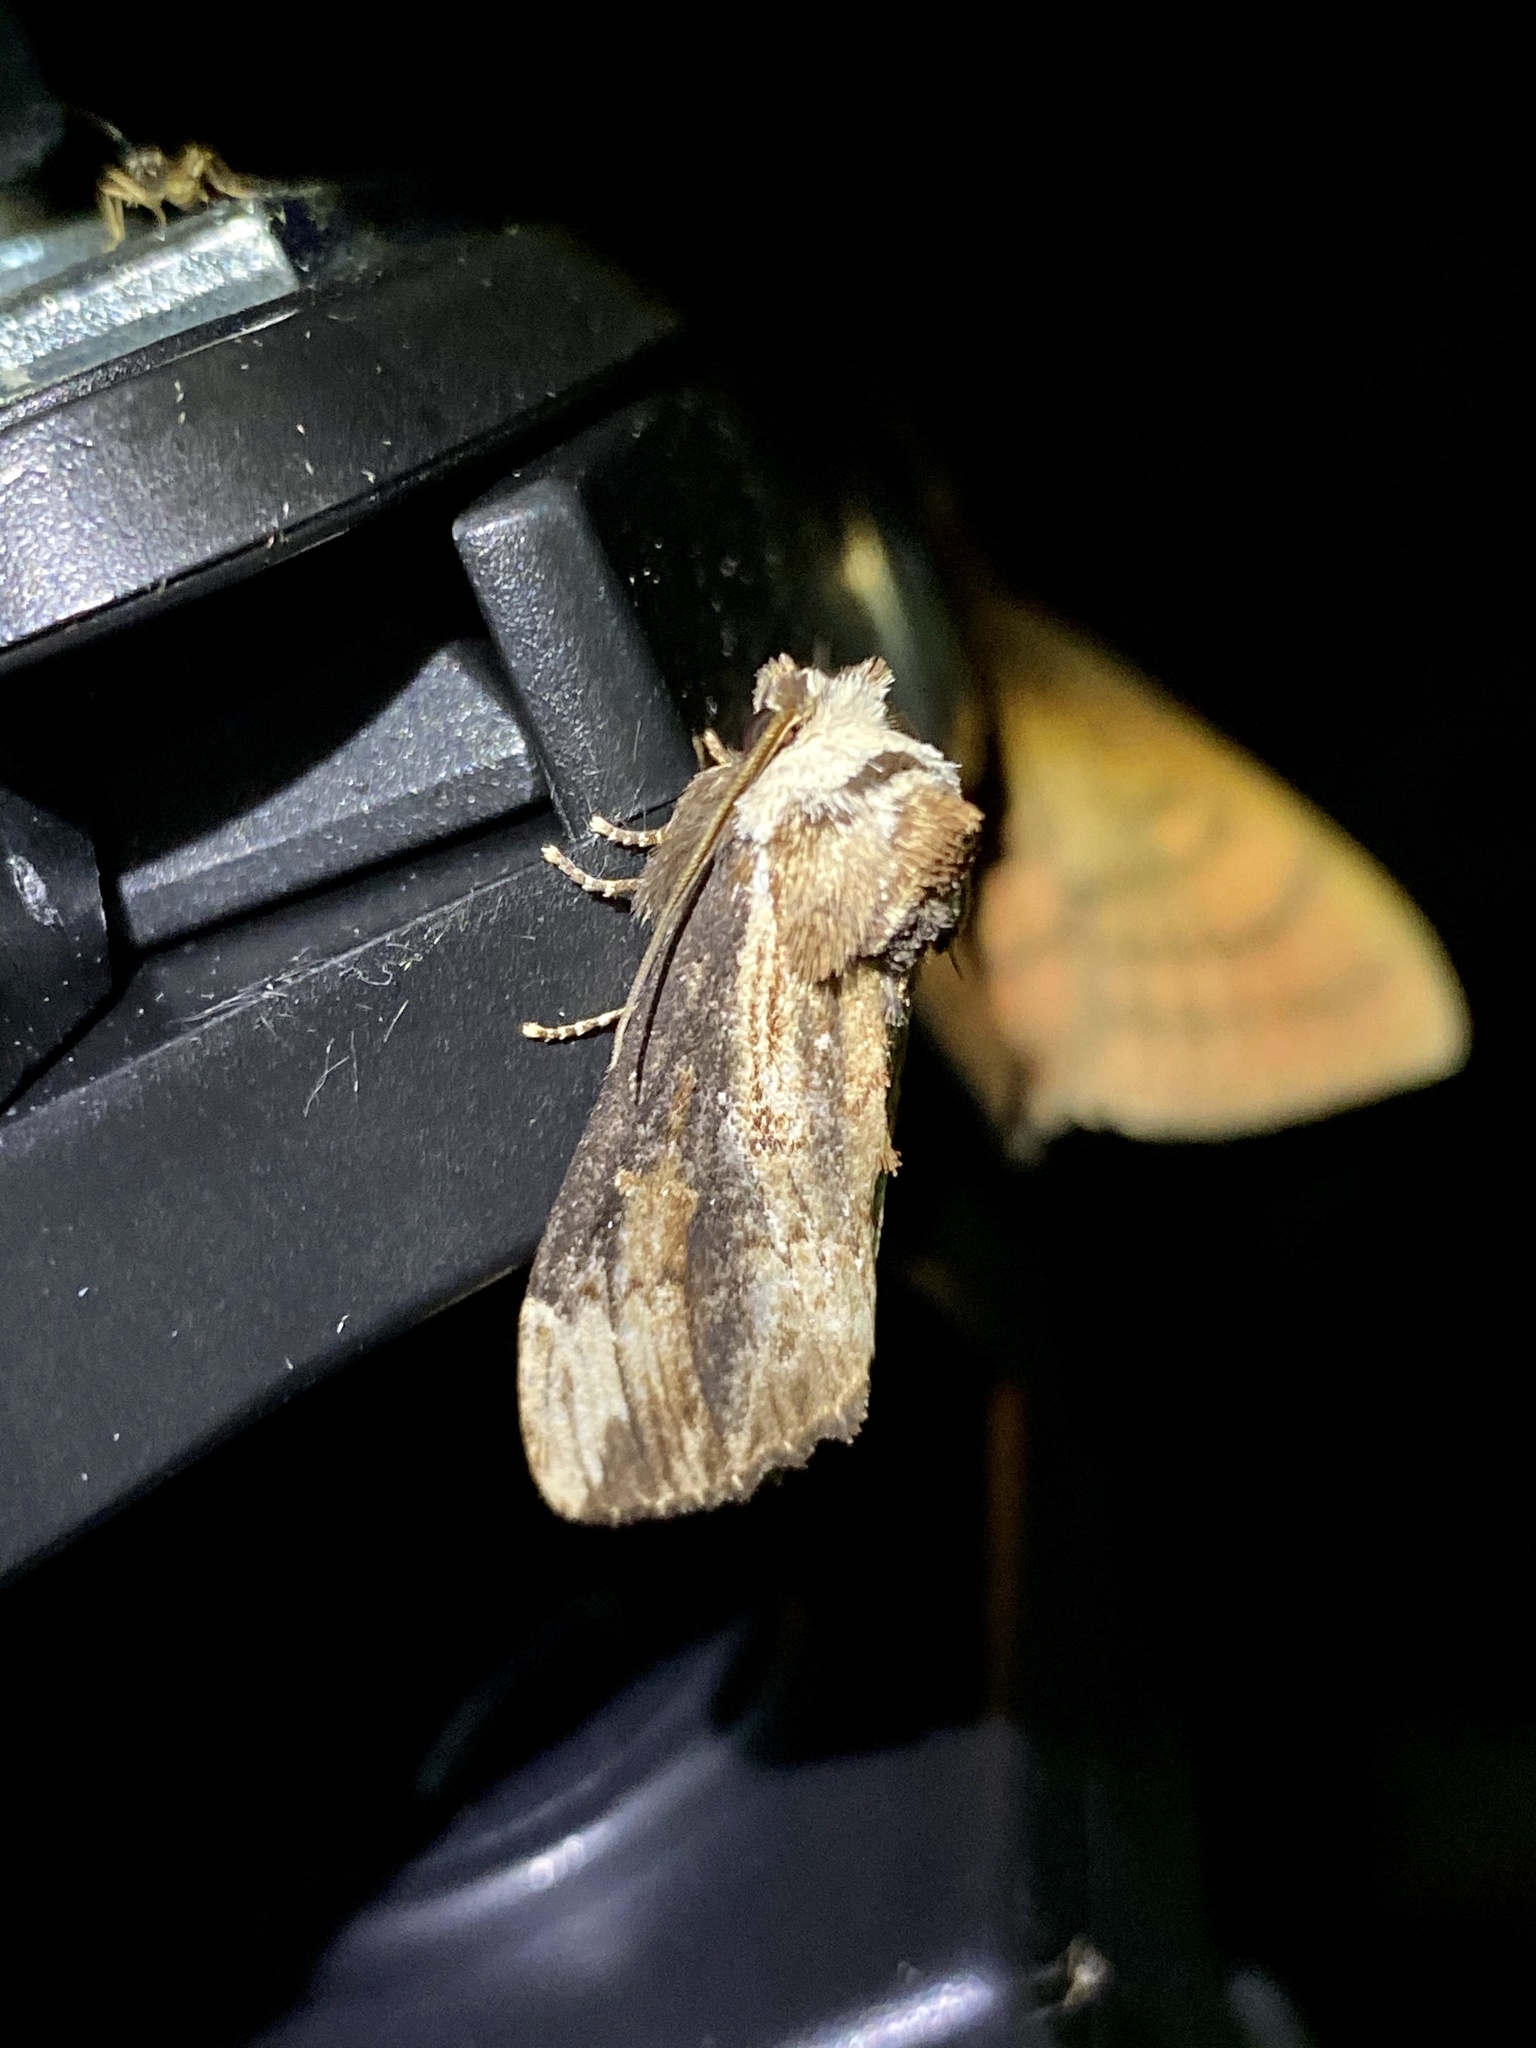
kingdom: Animalia
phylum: Arthropoda
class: Insecta
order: Lepidoptera
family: Notodontidae
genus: Hiradonta
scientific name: Hiradonta takaonis
